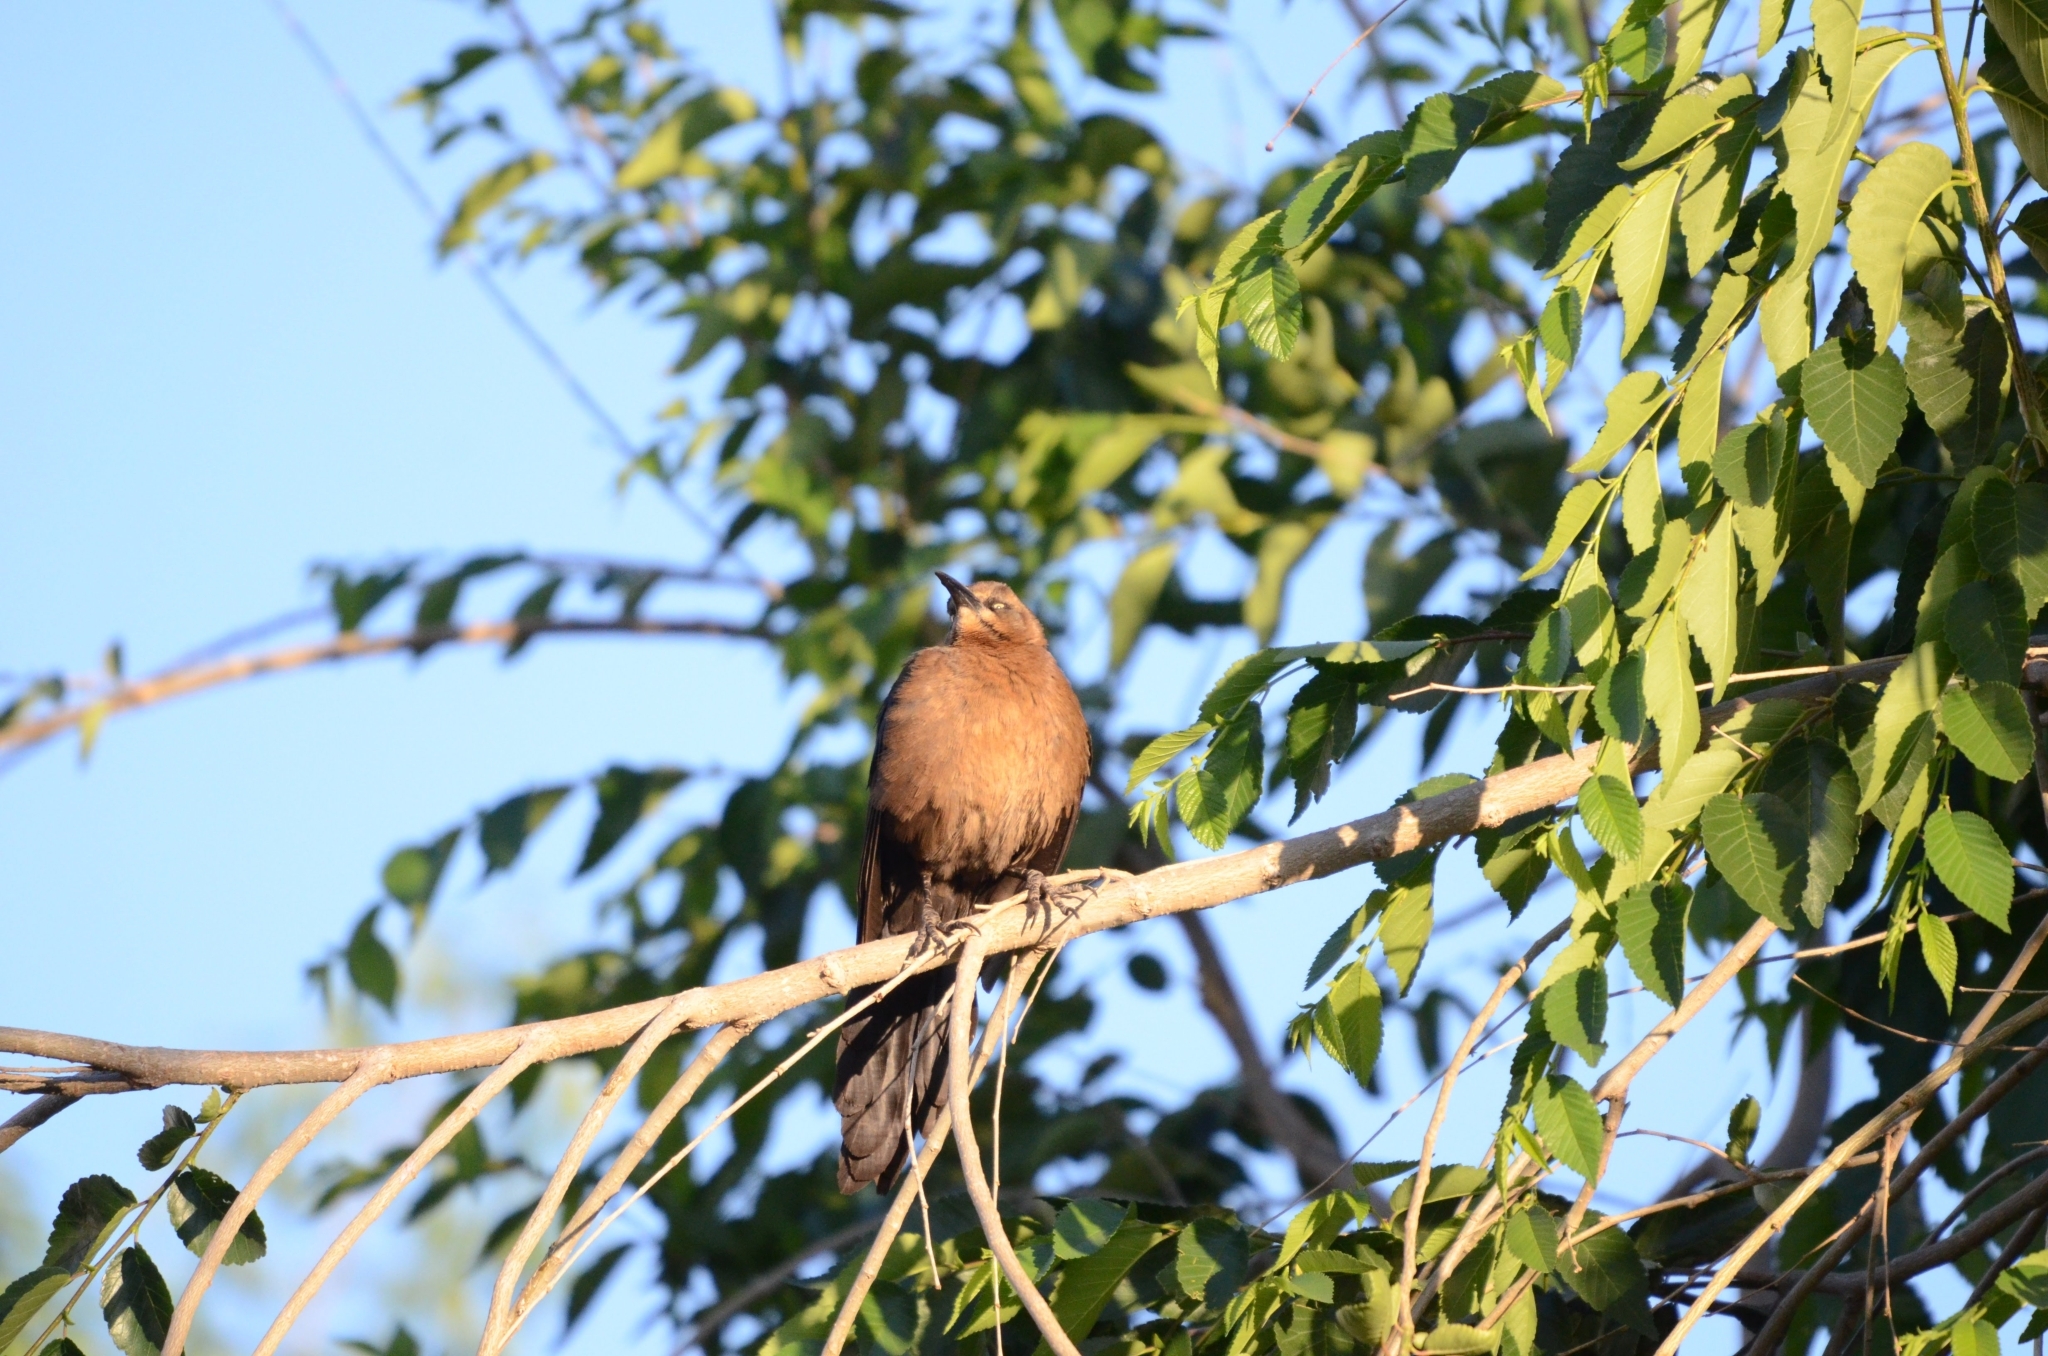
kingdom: Animalia
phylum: Chordata
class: Aves
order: Passeriformes
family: Icteridae
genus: Quiscalus
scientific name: Quiscalus mexicanus
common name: Great-tailed grackle
